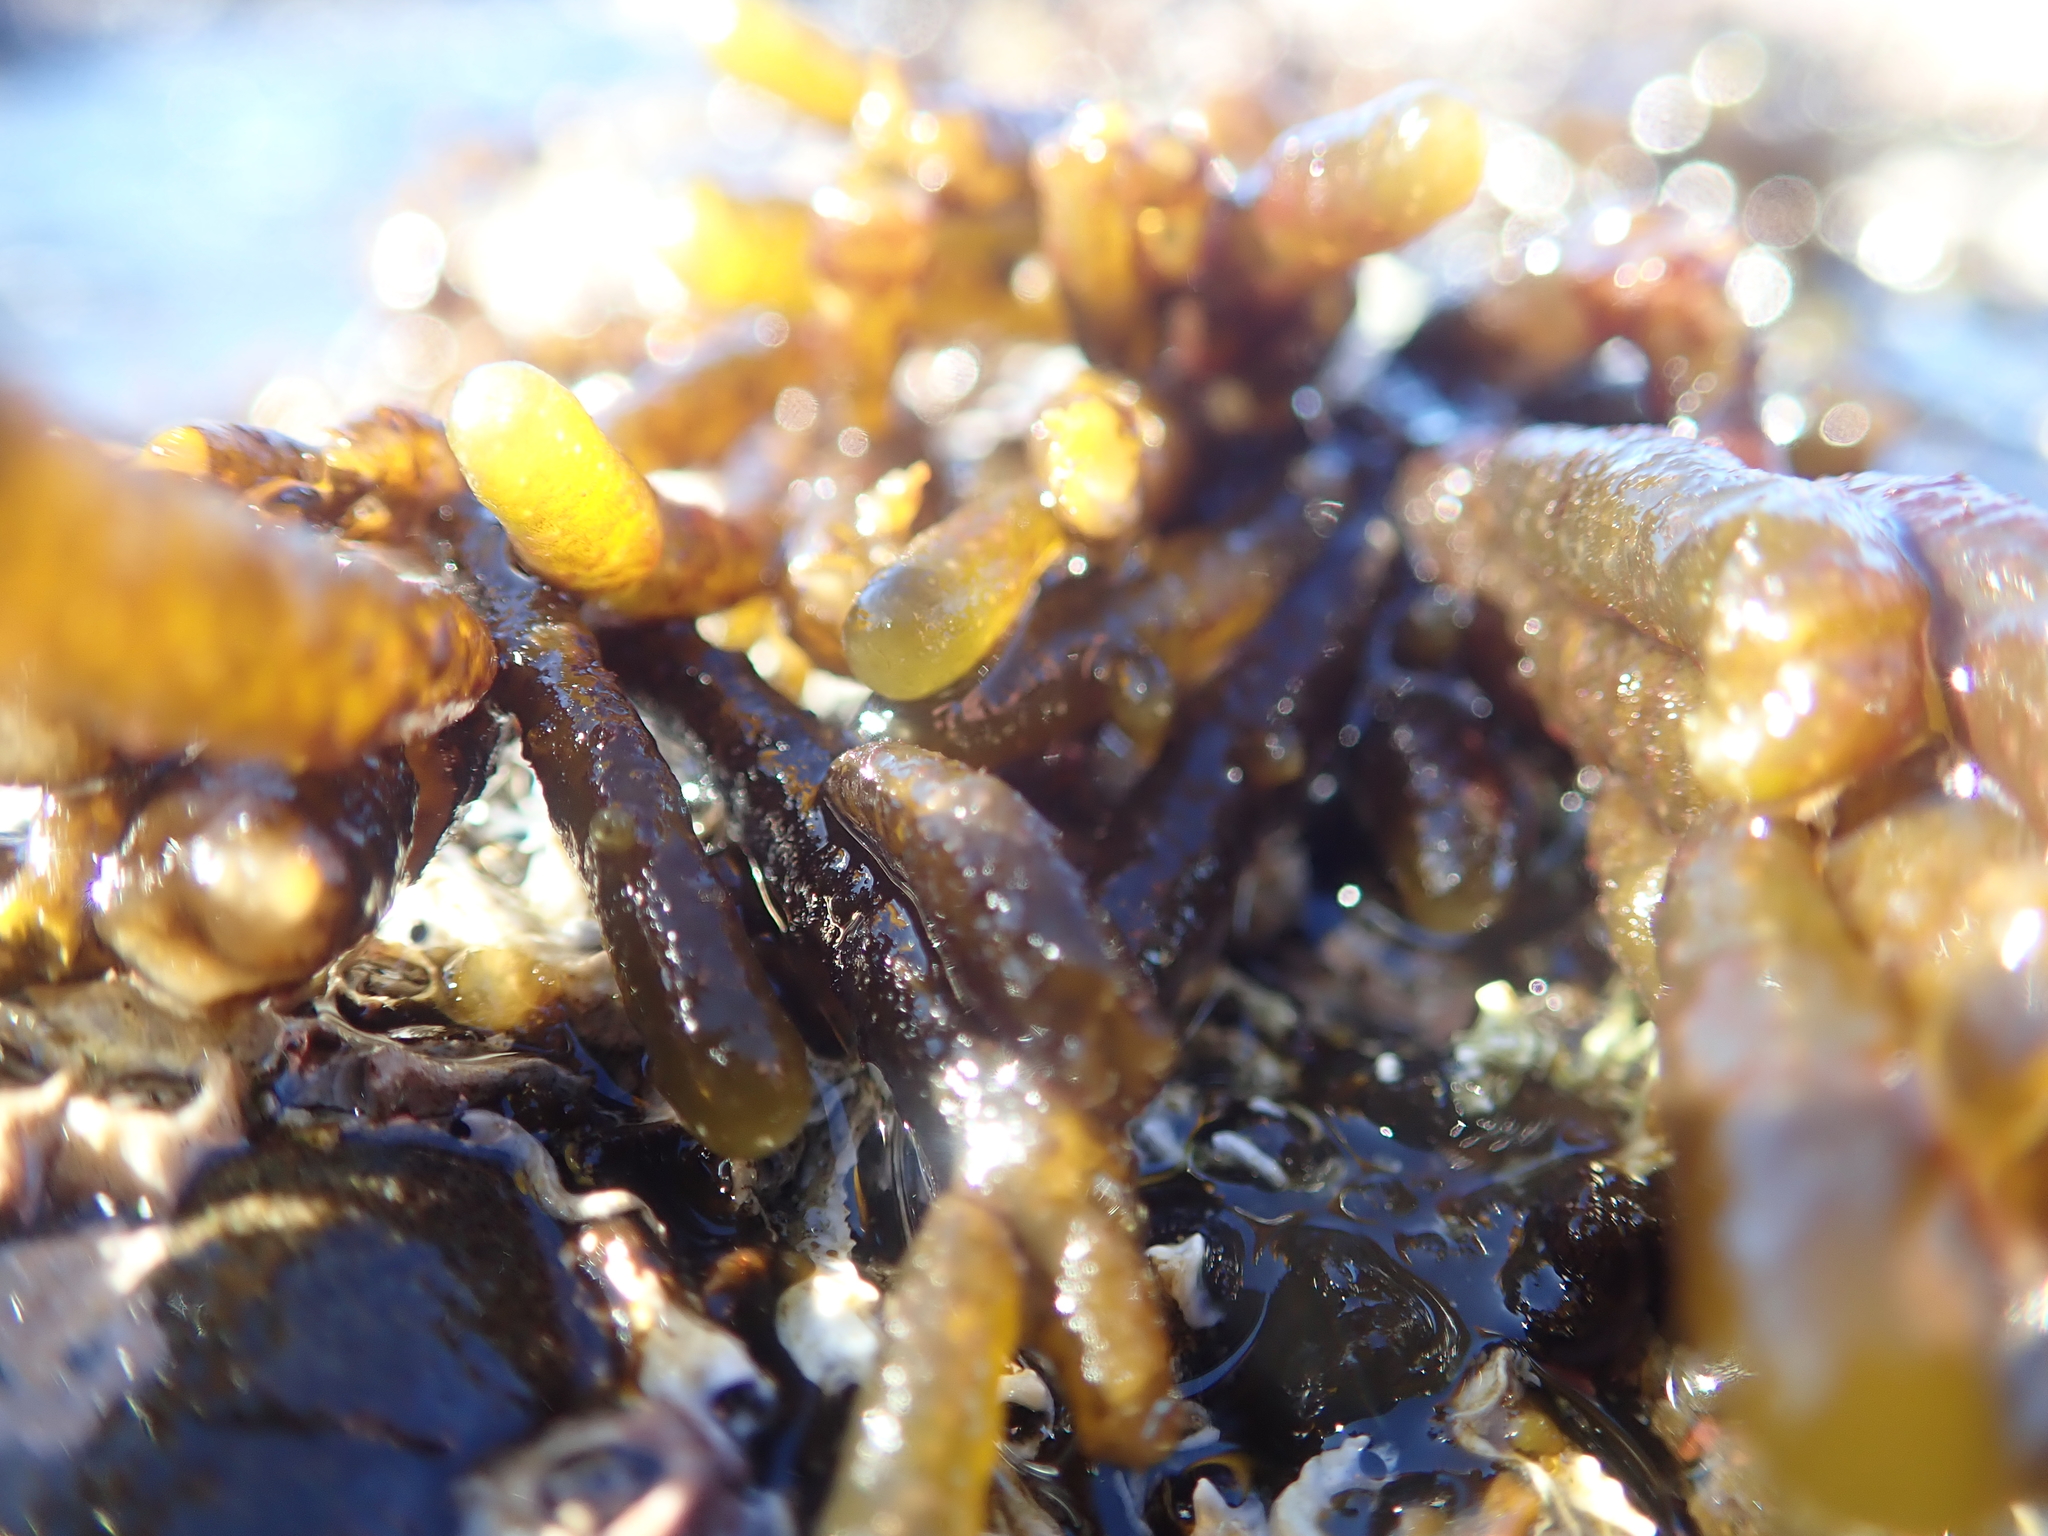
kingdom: Chromista
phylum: Ochrophyta
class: Phaeophyceae
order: Ectocarpales
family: Adenocystaceae
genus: Adenocystis
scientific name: Adenocystis utricularis
